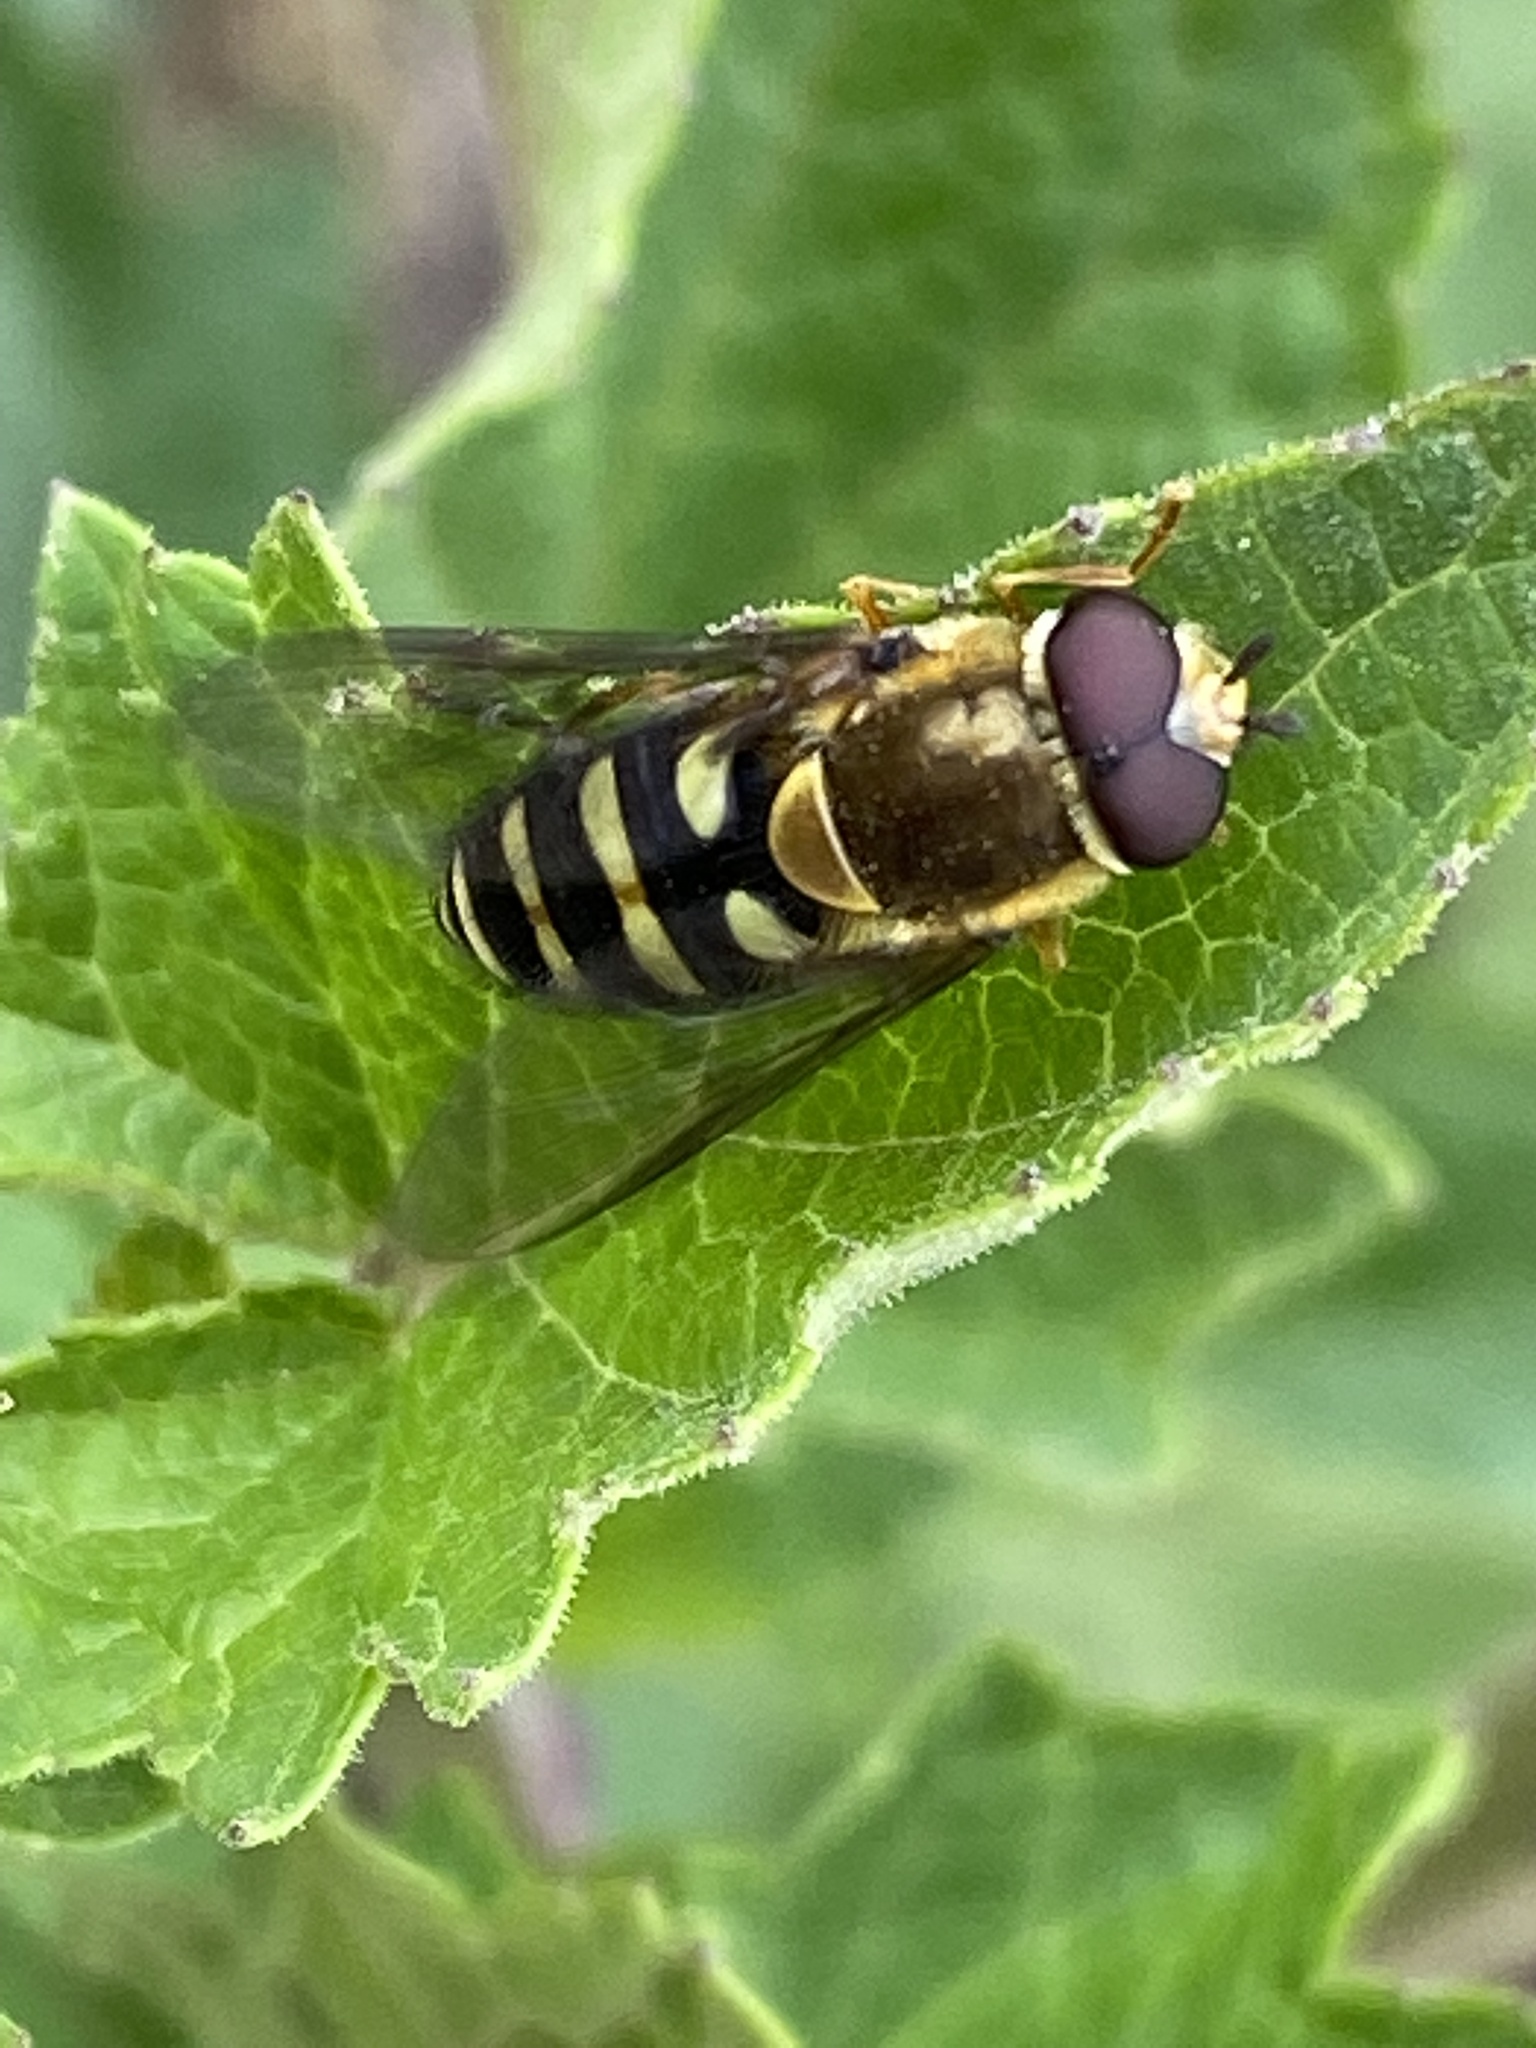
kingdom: Animalia
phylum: Arthropoda
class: Insecta
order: Diptera
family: Syrphidae
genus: Syrphus
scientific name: Syrphus opinator
